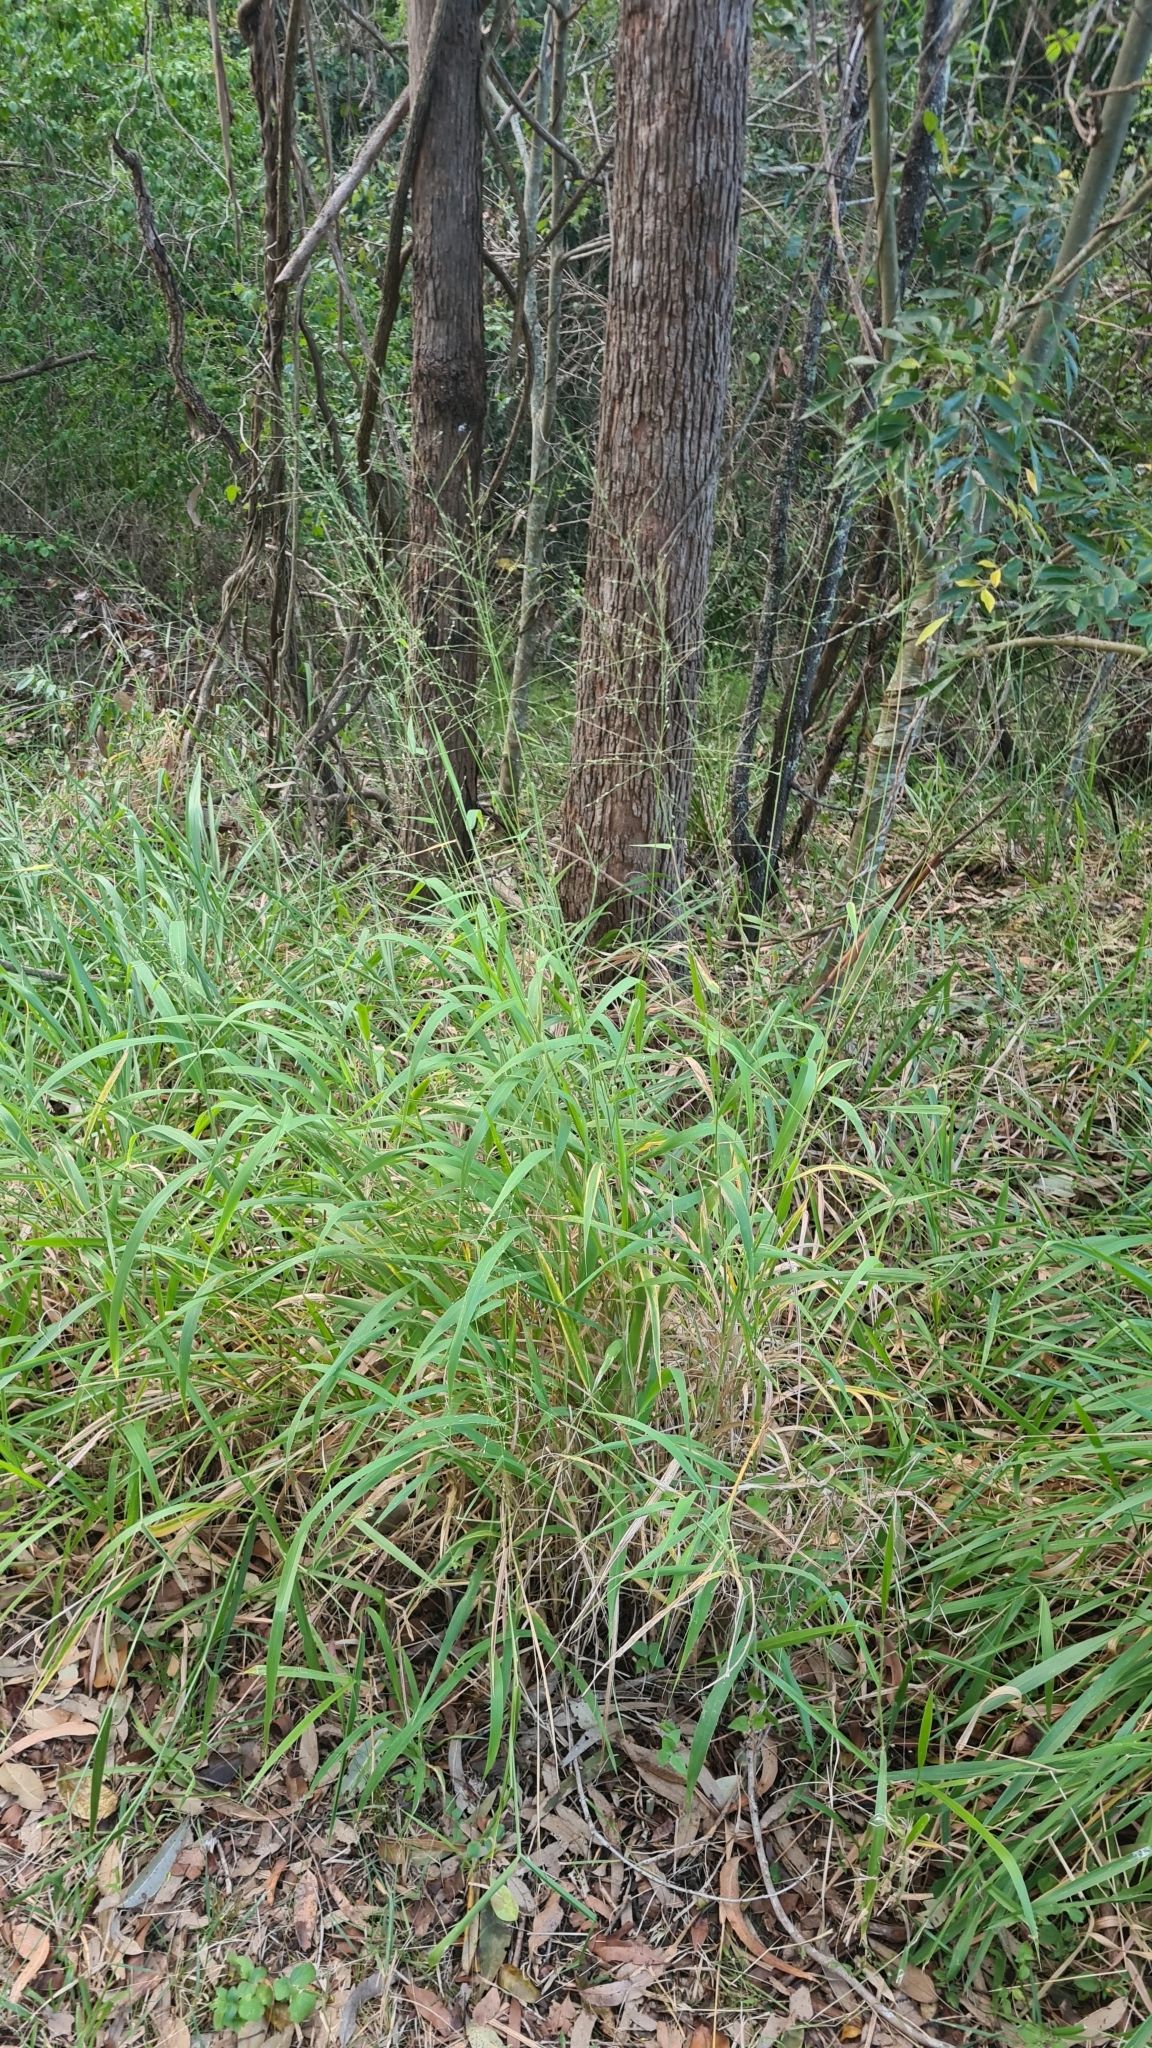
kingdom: Plantae
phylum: Tracheophyta
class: Liliopsida
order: Poales
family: Poaceae
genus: Megathyrsus
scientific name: Megathyrsus maximus
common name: Guineagrass
